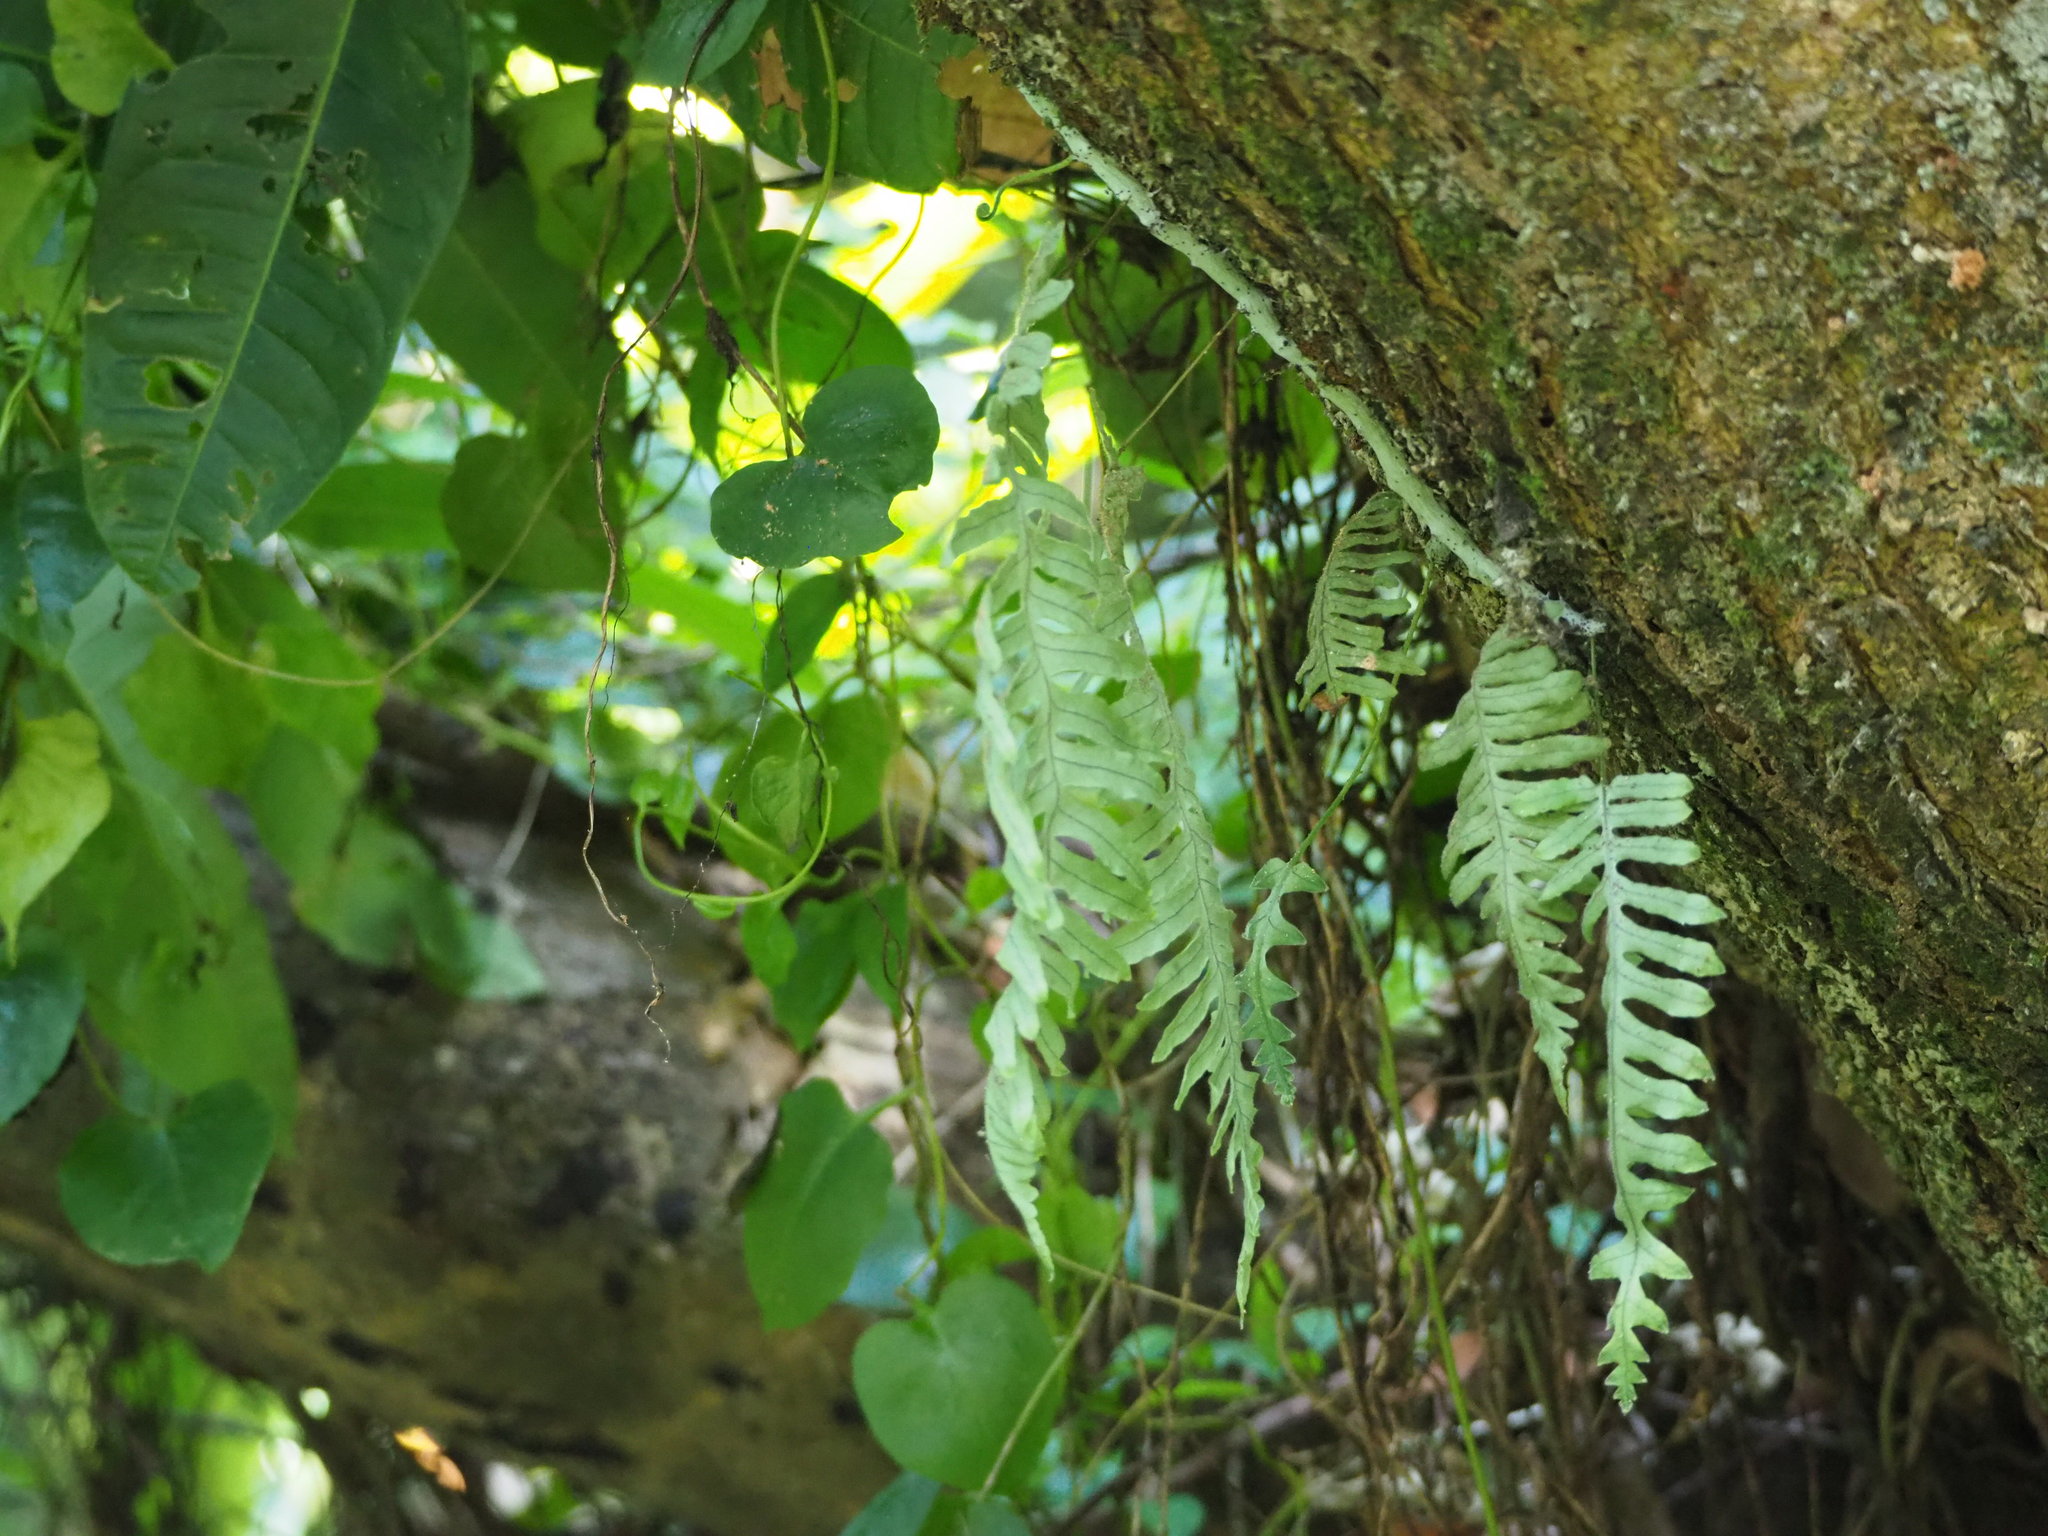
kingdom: Plantae
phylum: Tracheophyta
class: Polypodiopsida
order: Polypodiales
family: Polypodiaceae
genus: Goniophlebium
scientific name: Goniophlebium formosanum
